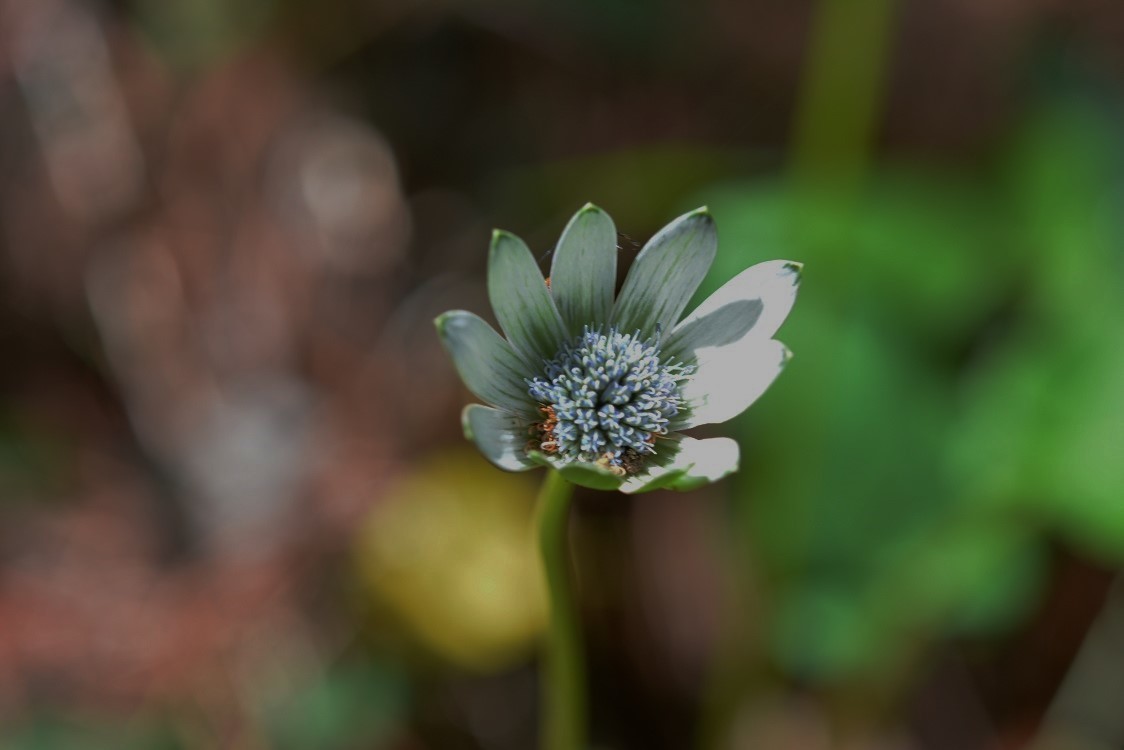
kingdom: Plantae
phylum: Tracheophyta
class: Magnoliopsida
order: Apiales
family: Apiaceae
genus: Eryngium
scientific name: Eryngium scaposum
